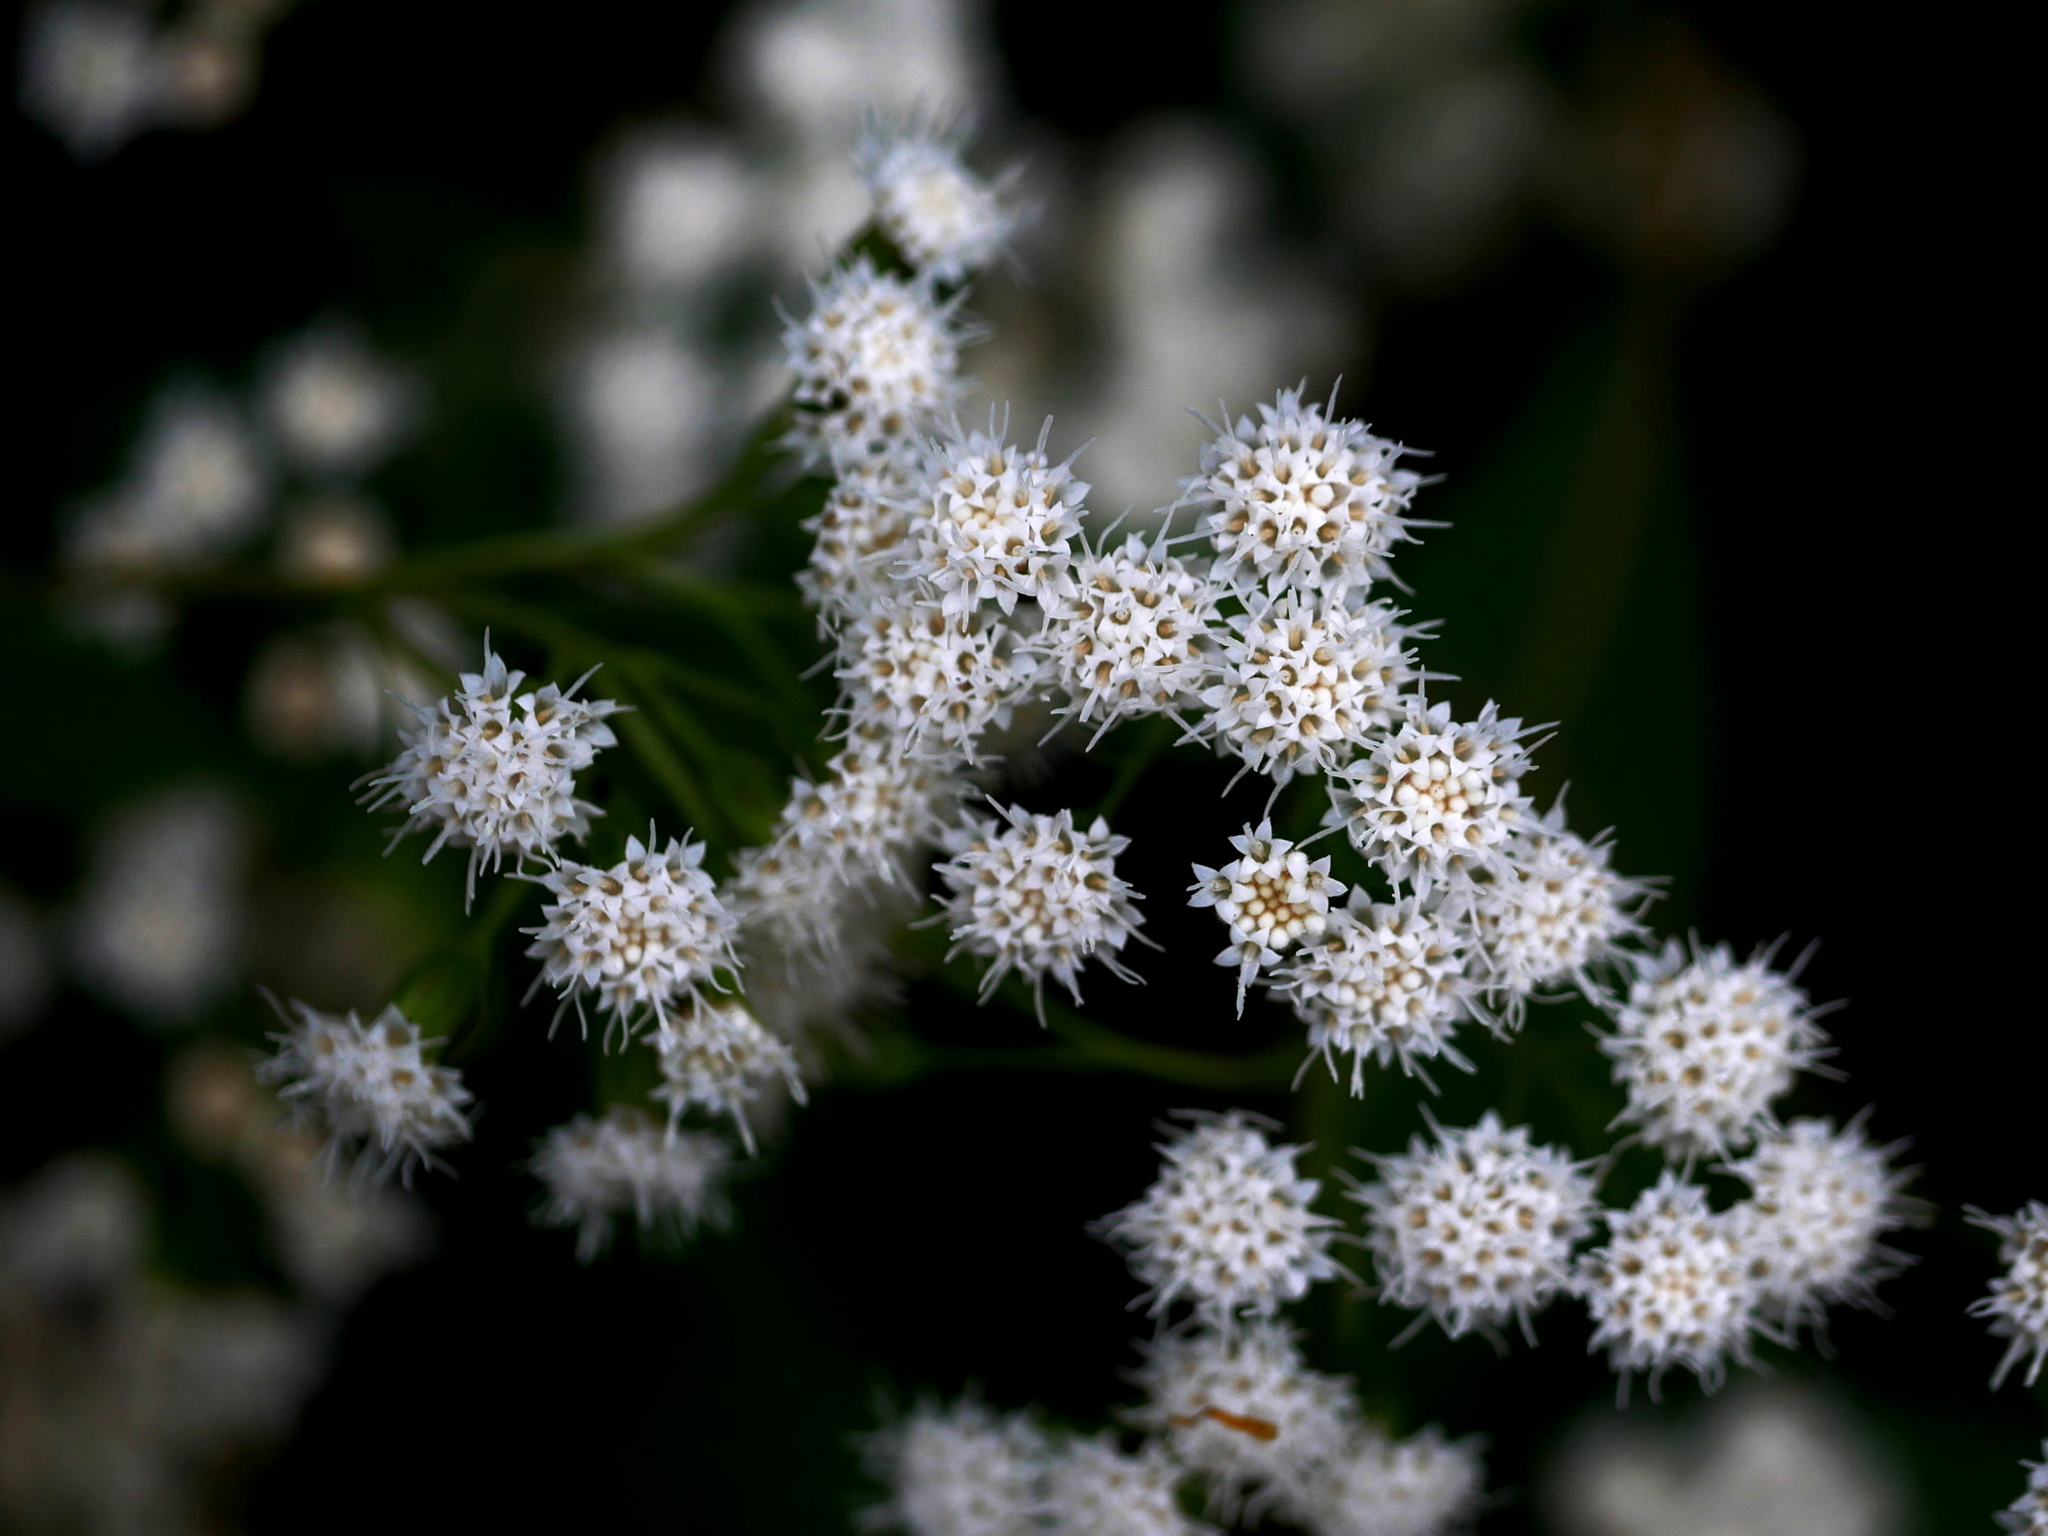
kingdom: Plantae
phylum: Tracheophyta
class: Magnoliopsida
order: Asterales
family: Asteraceae
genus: Ageratina
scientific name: Ageratina riparia
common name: Creeping croftonweed
